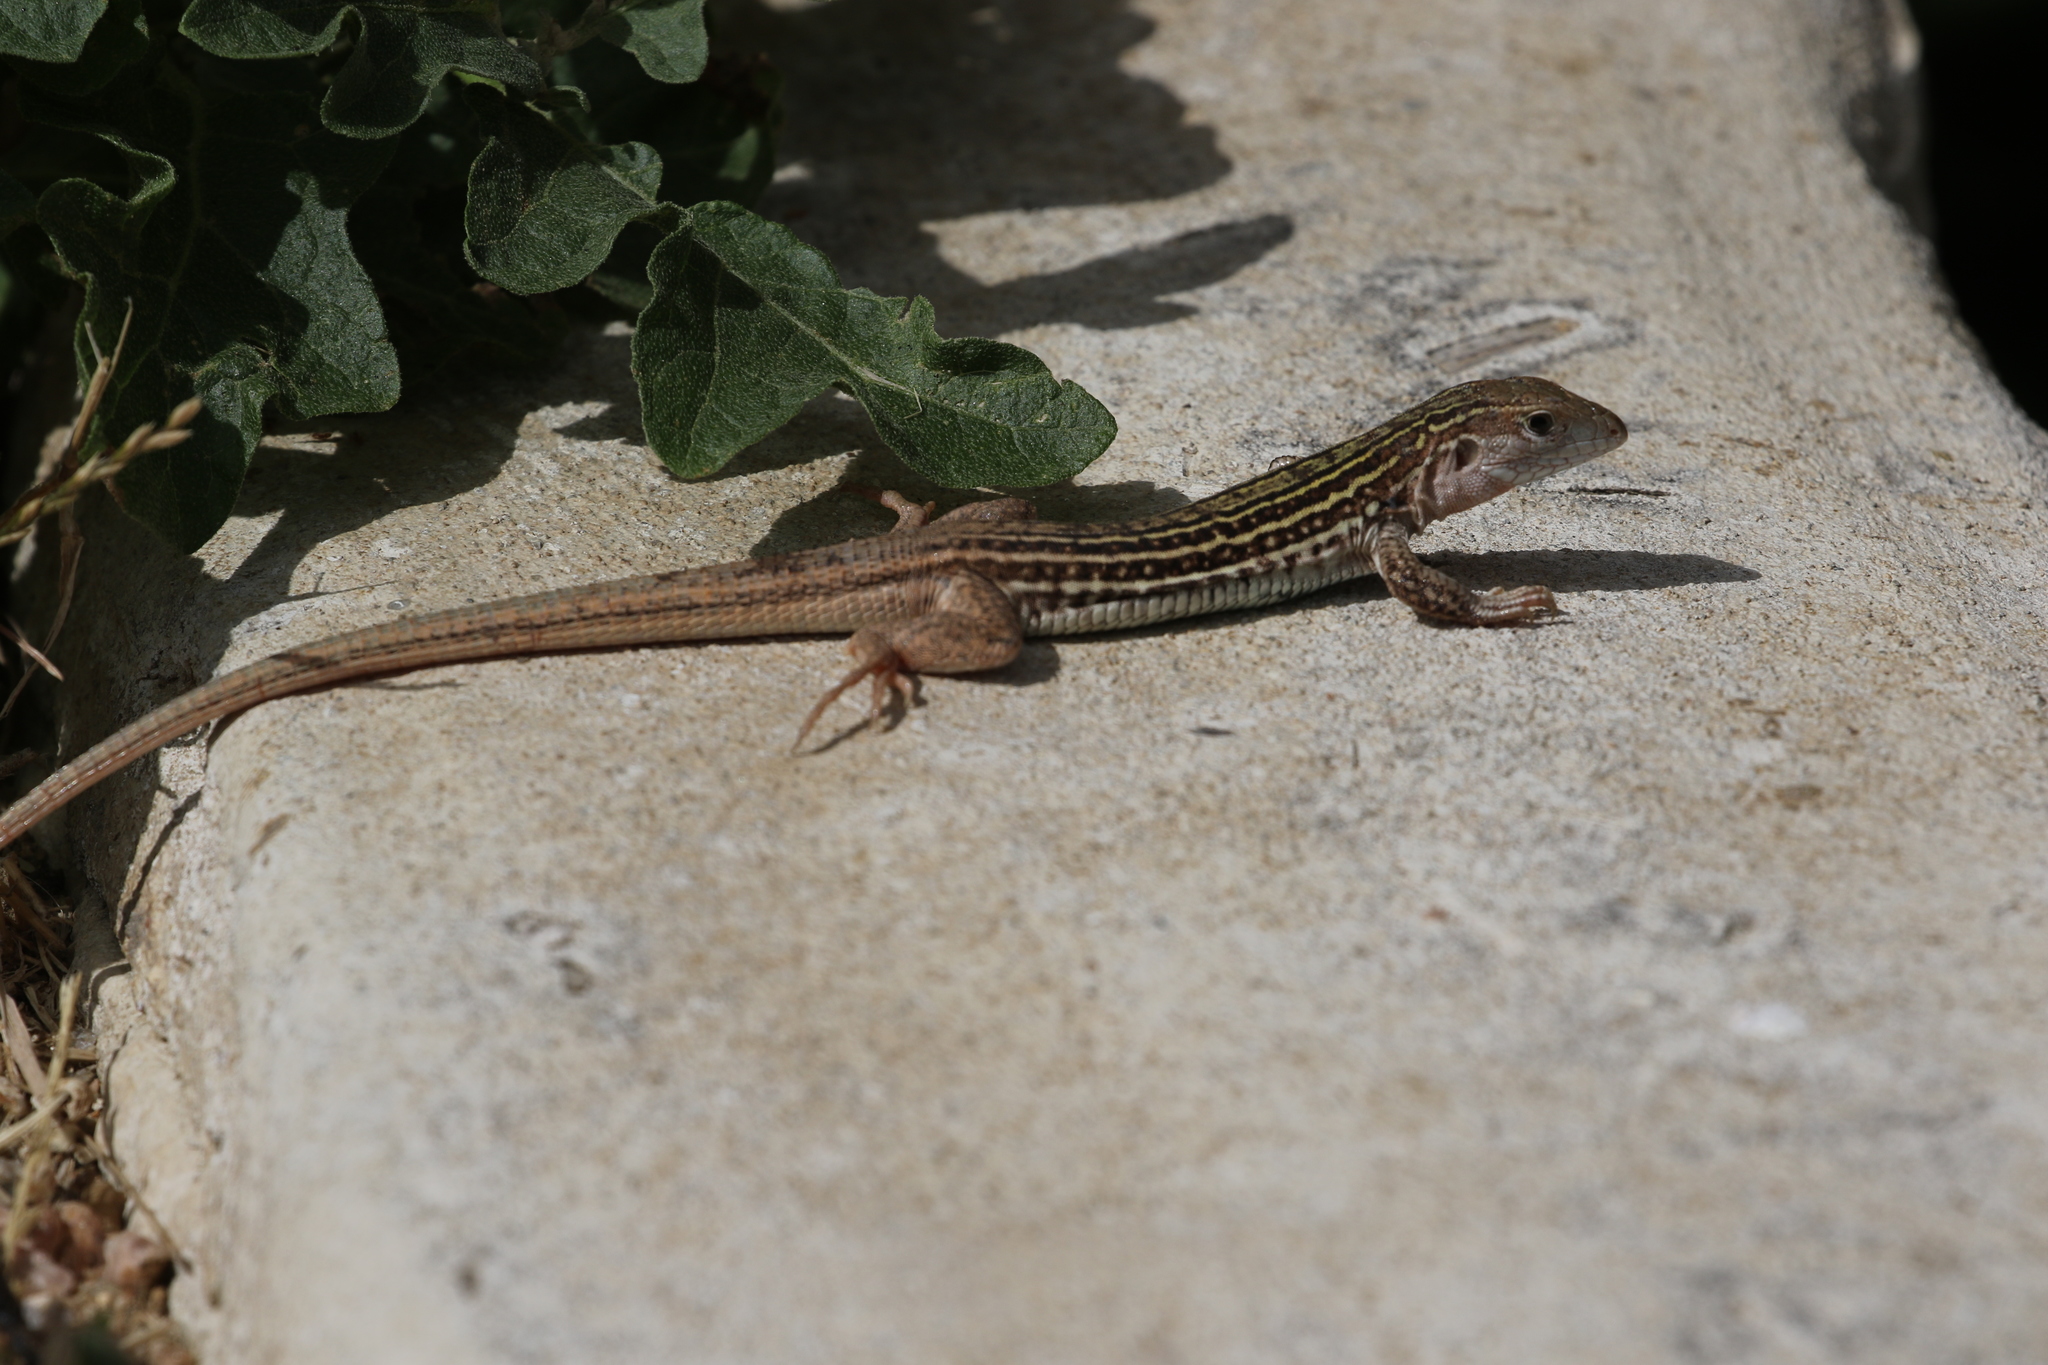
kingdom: Animalia
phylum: Chordata
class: Squamata
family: Teiidae
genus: Aspidoscelis
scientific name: Aspidoscelis gularis
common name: Eastern spotted whiptail
